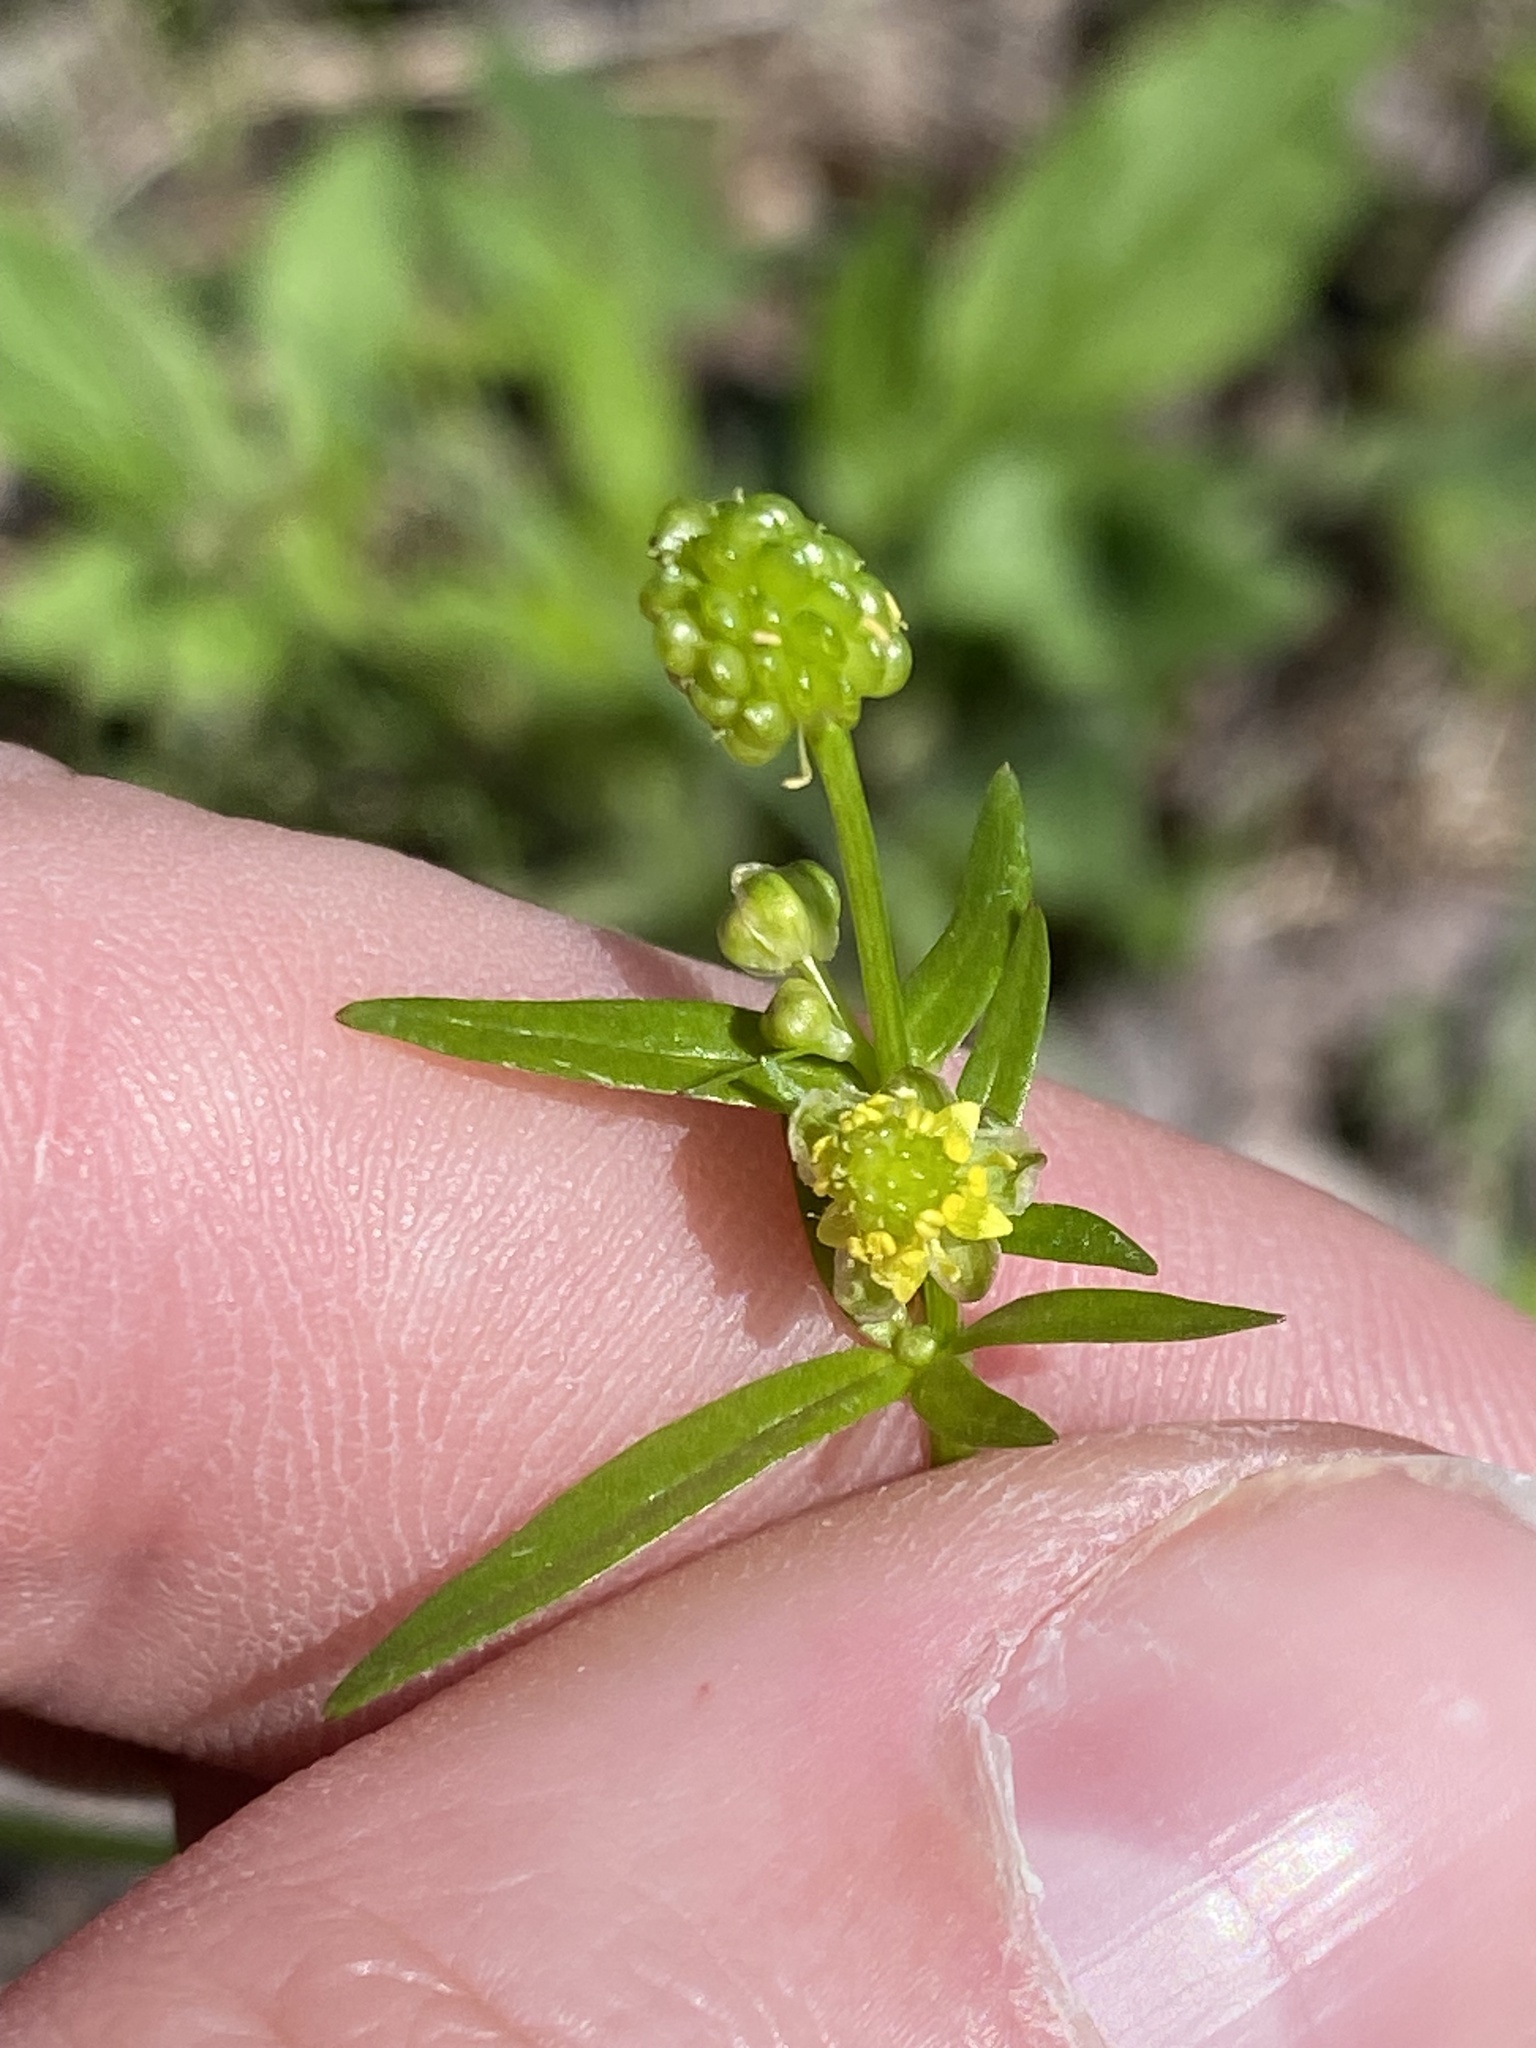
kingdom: Plantae
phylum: Tracheophyta
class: Magnoliopsida
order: Ranunculales
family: Ranunculaceae
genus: Ranunculus
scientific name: Ranunculus abortivus
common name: Early wood buttercup
